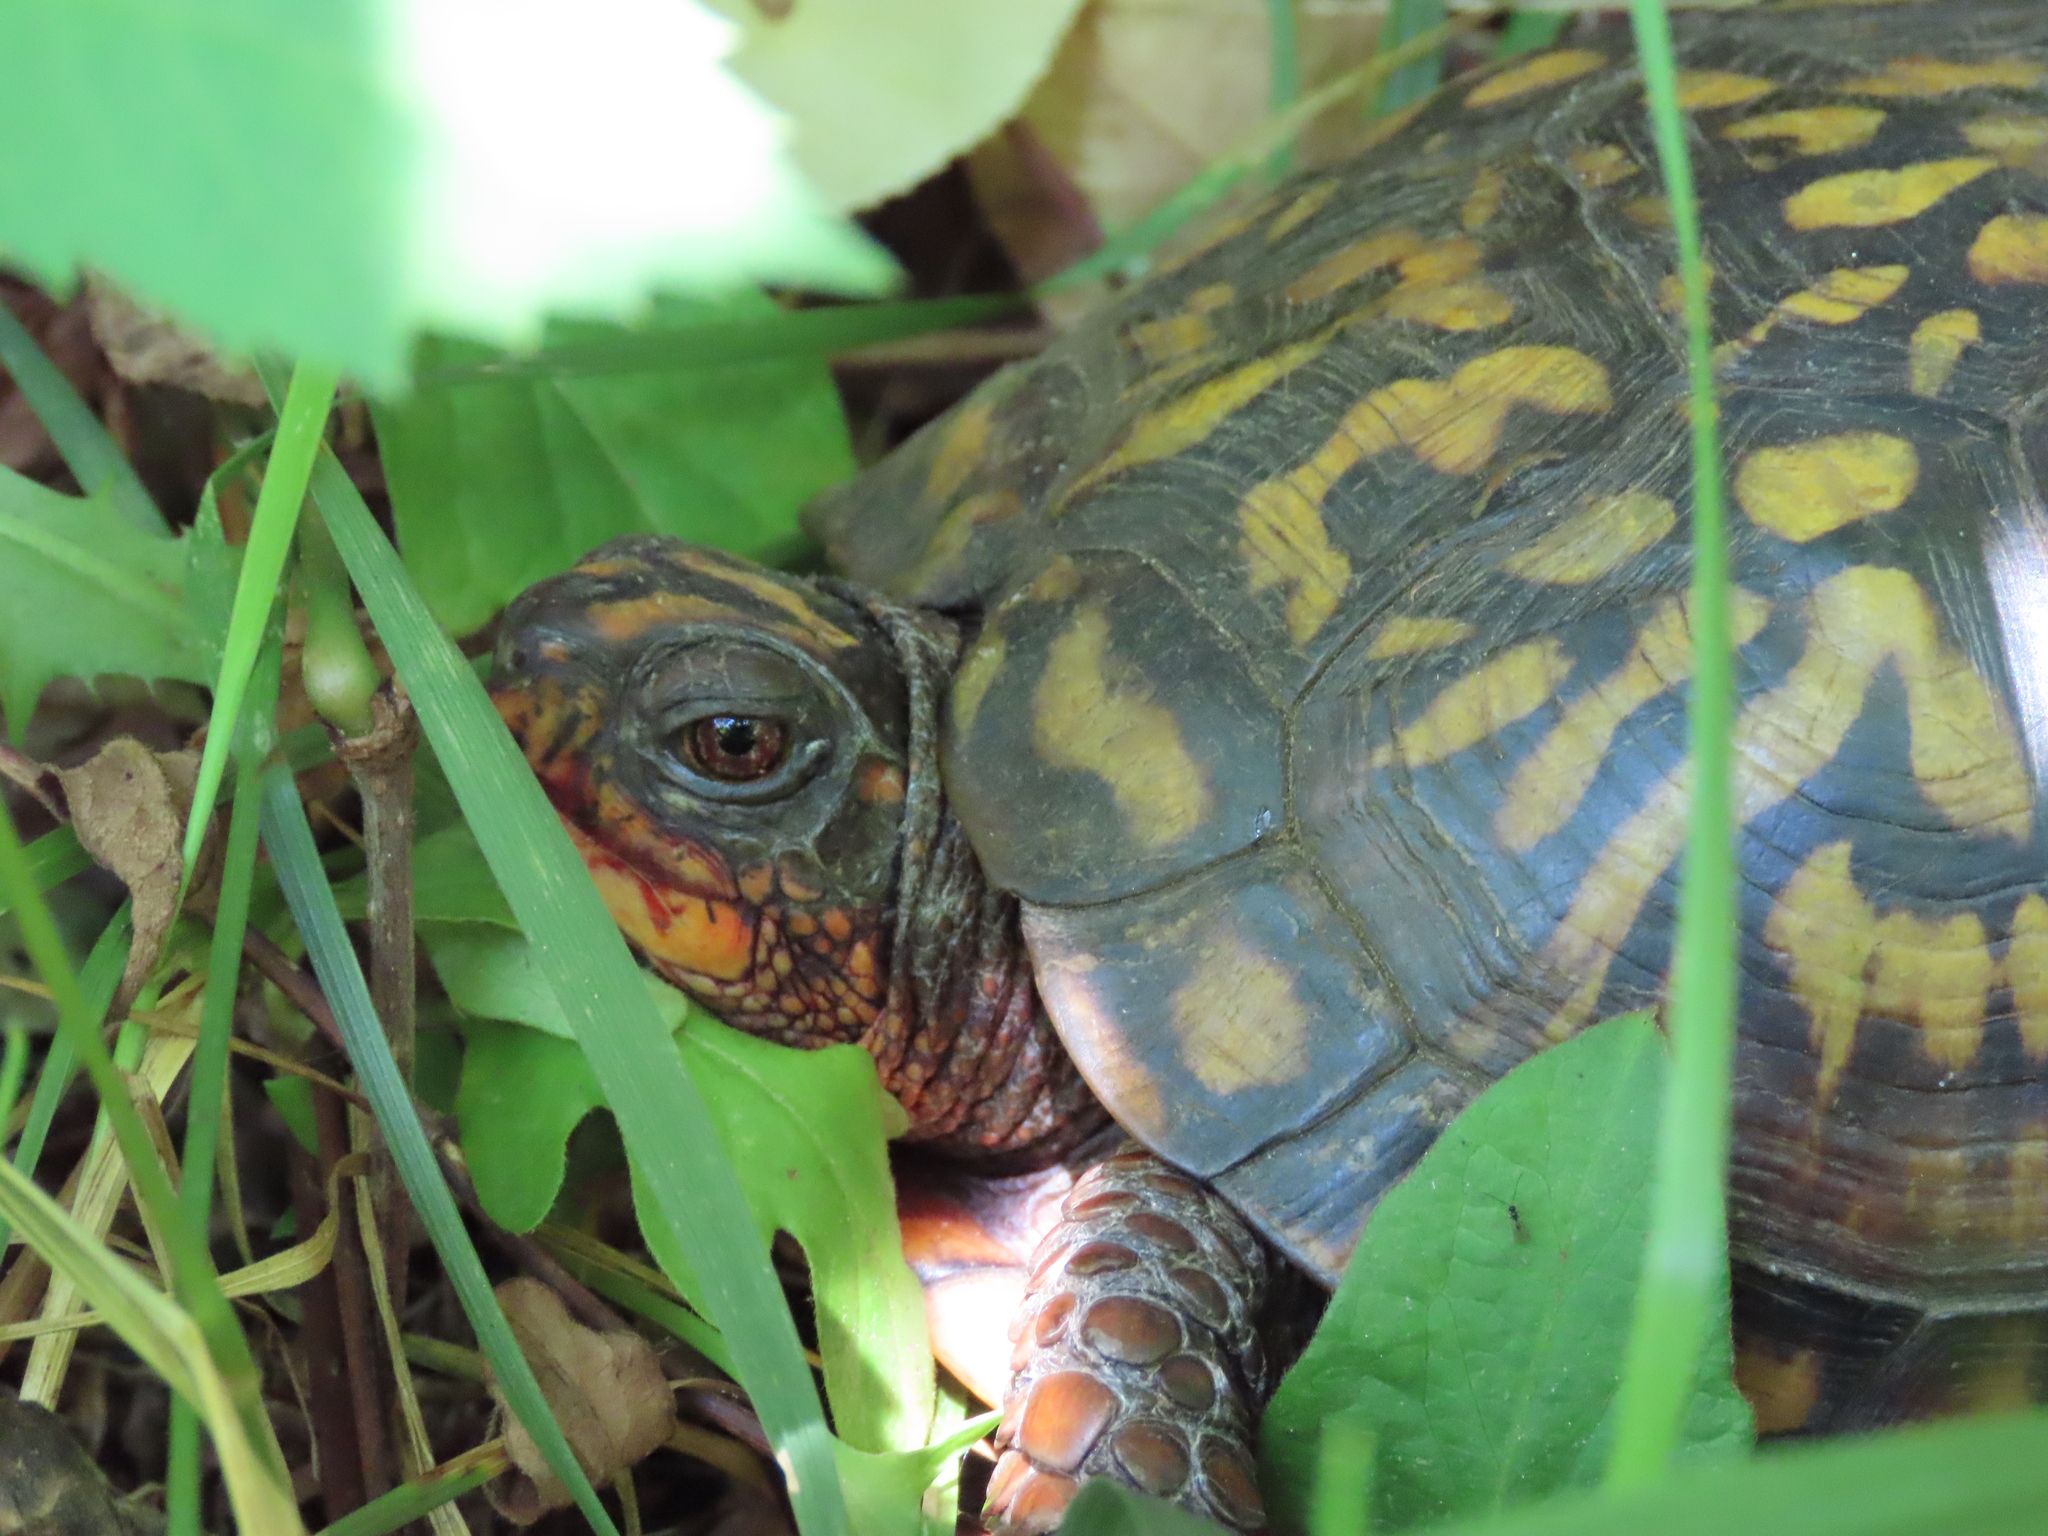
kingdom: Animalia
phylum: Chordata
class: Testudines
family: Emydidae
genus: Terrapene
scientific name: Terrapene carolina
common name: Common box turtle
